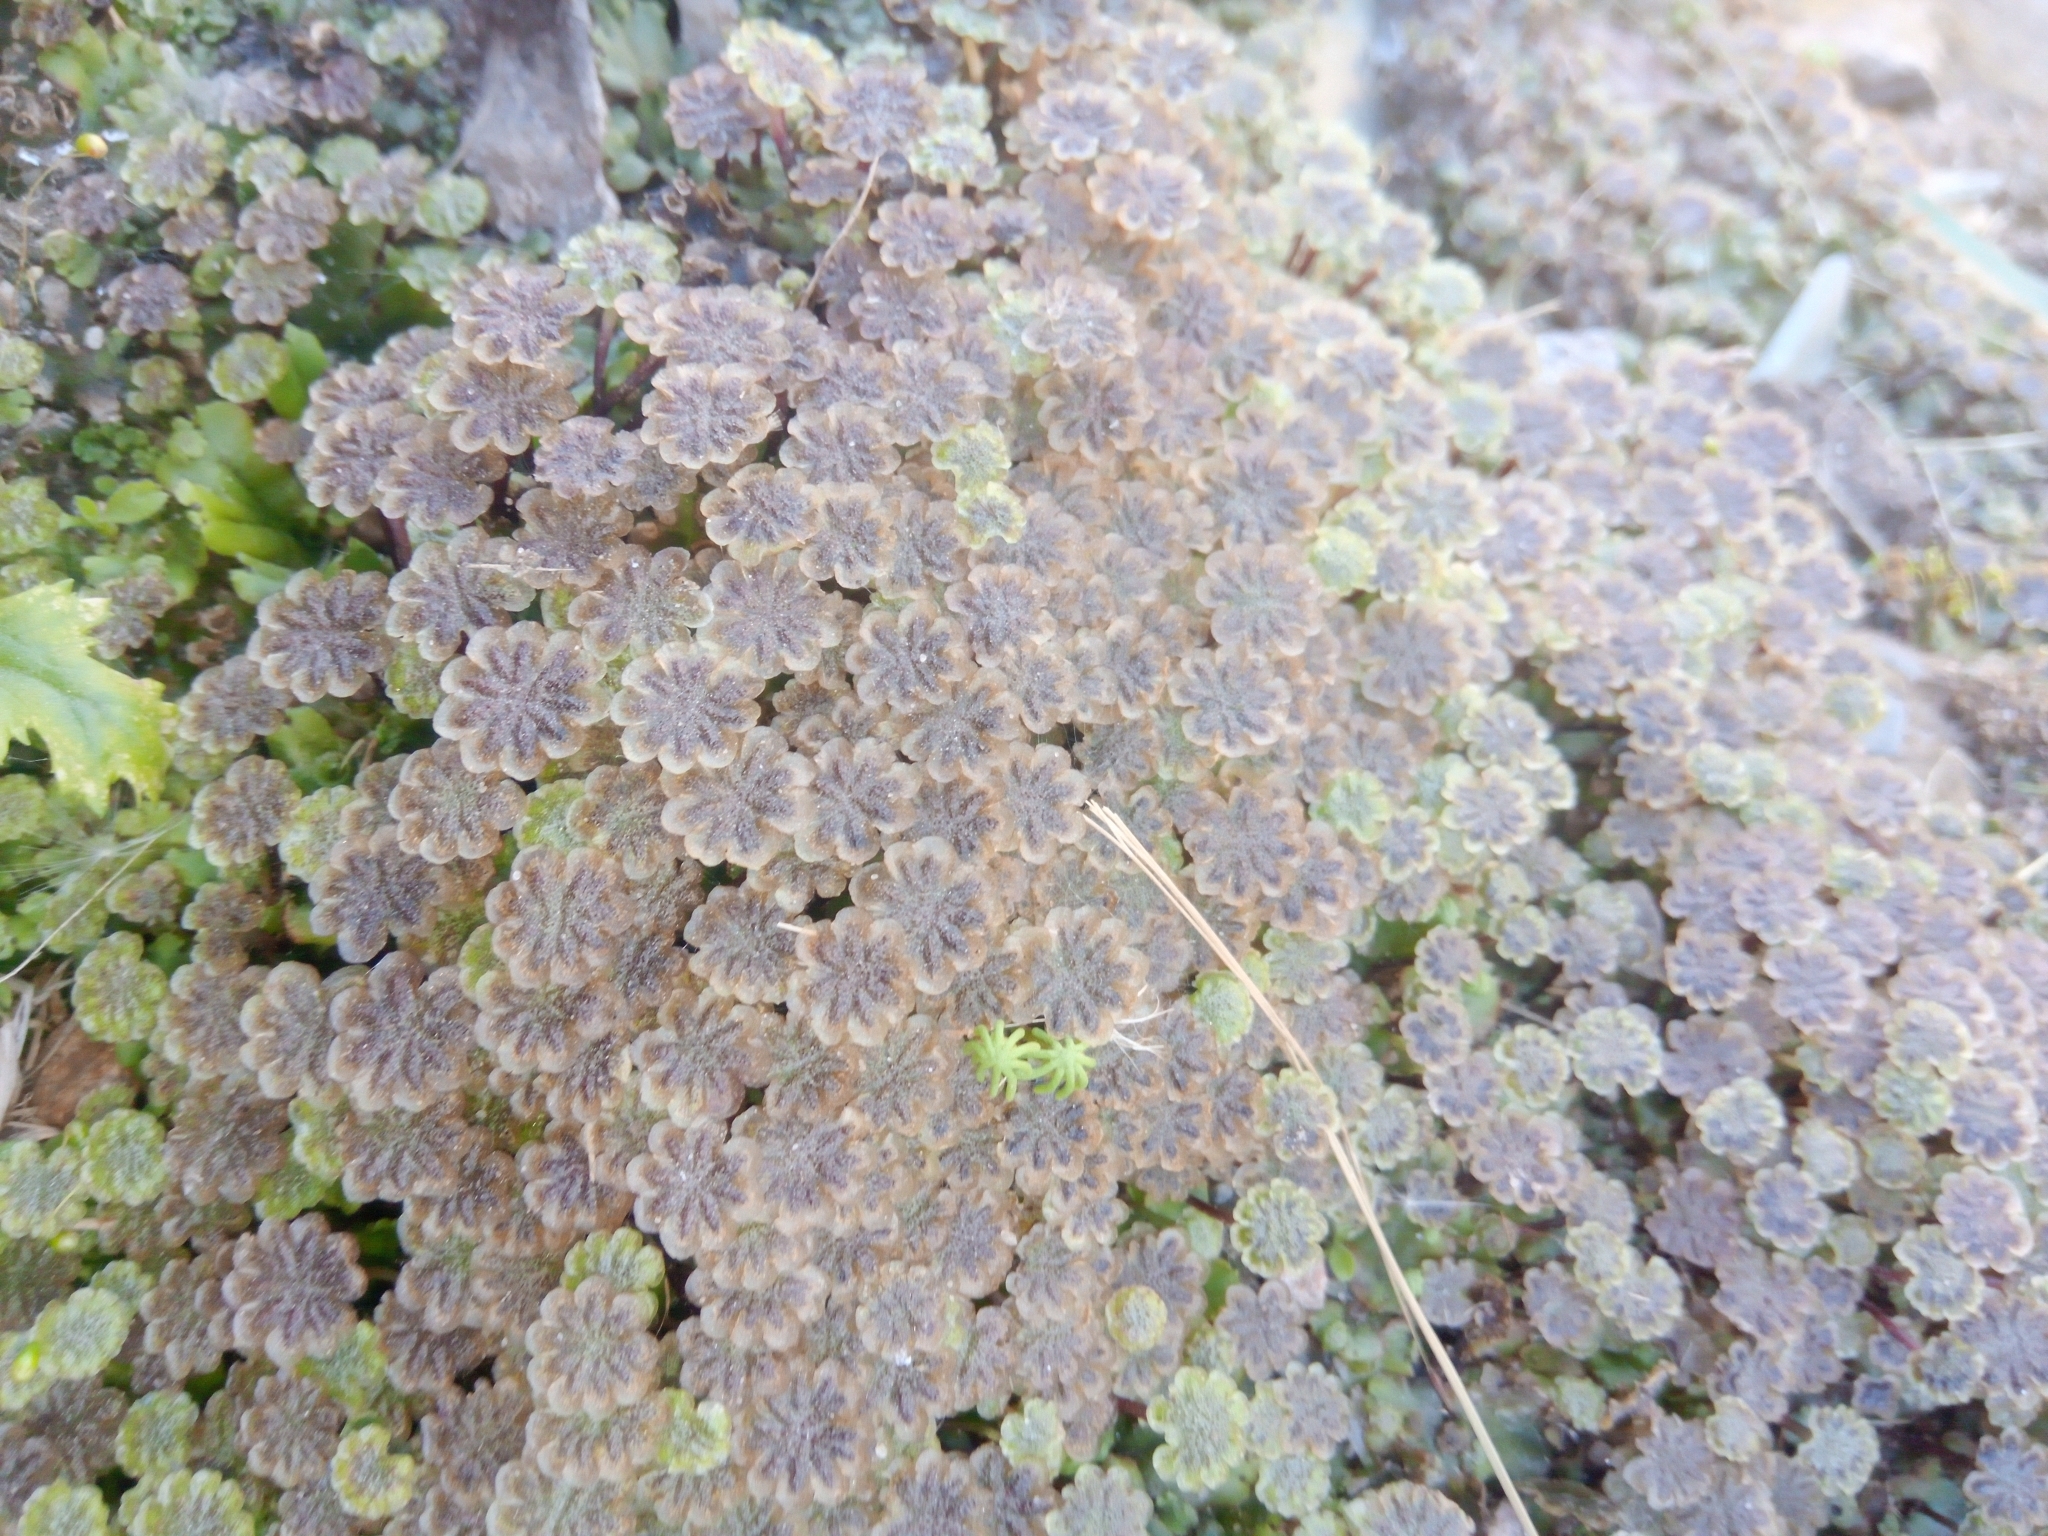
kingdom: Plantae
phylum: Marchantiophyta
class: Marchantiopsida
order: Marchantiales
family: Marchantiaceae
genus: Marchantia
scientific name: Marchantia polymorpha
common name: Common liverwort
